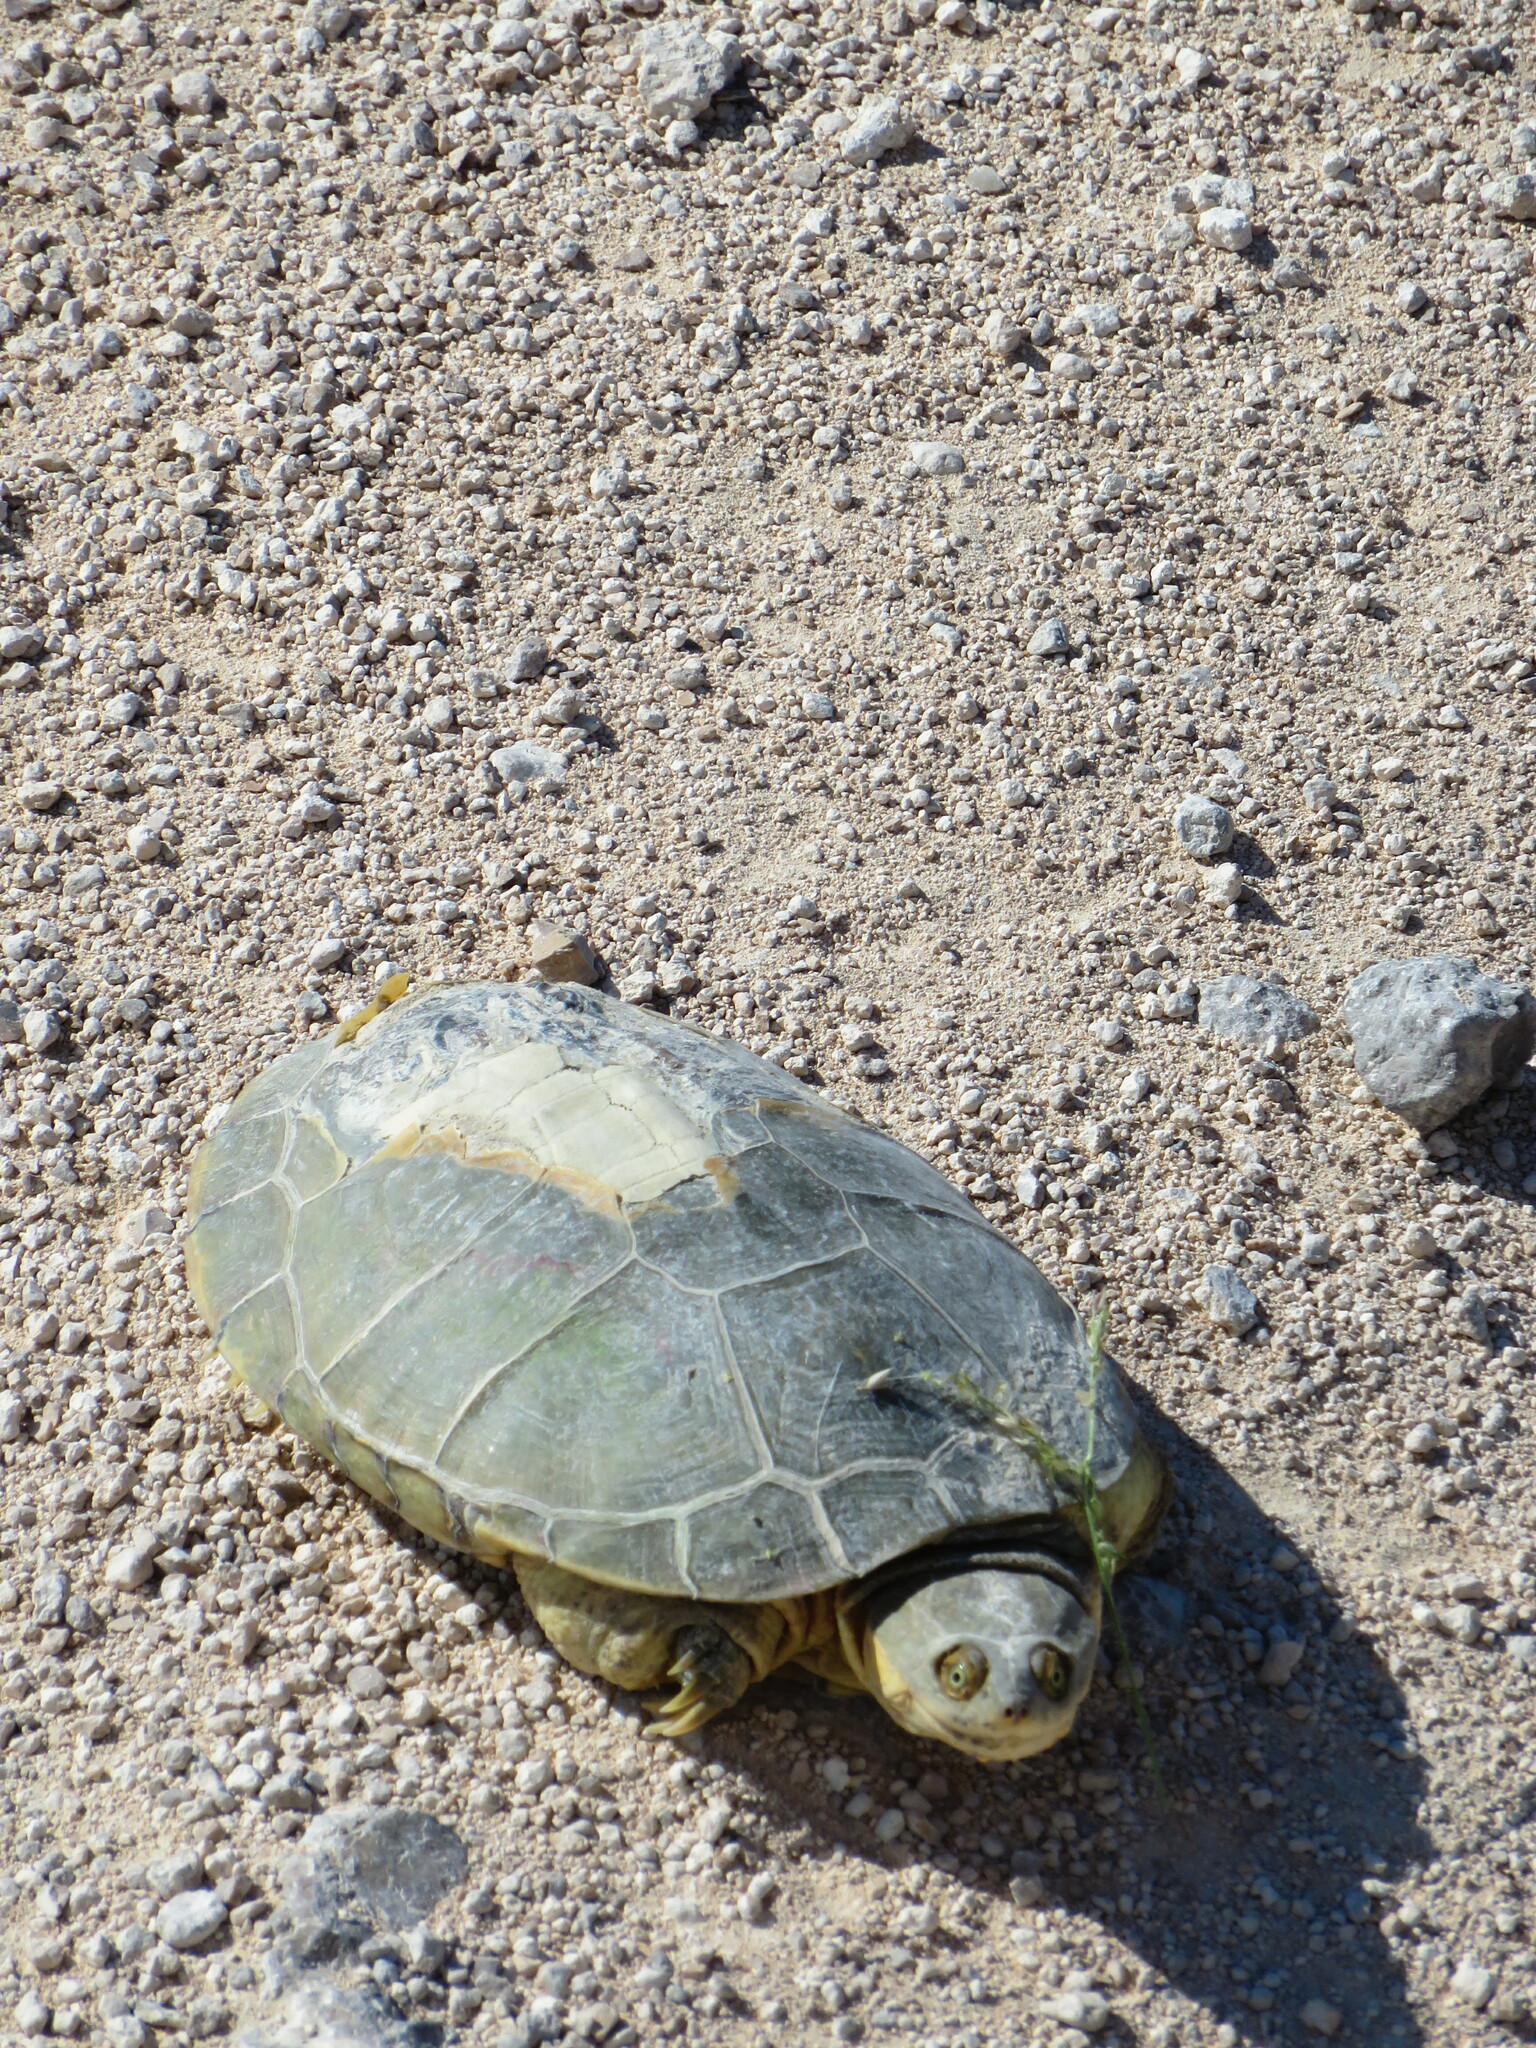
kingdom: Animalia
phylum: Chordata
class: Testudines
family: Pelomedusidae
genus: Pelomedusa
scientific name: Pelomedusa subrufa
